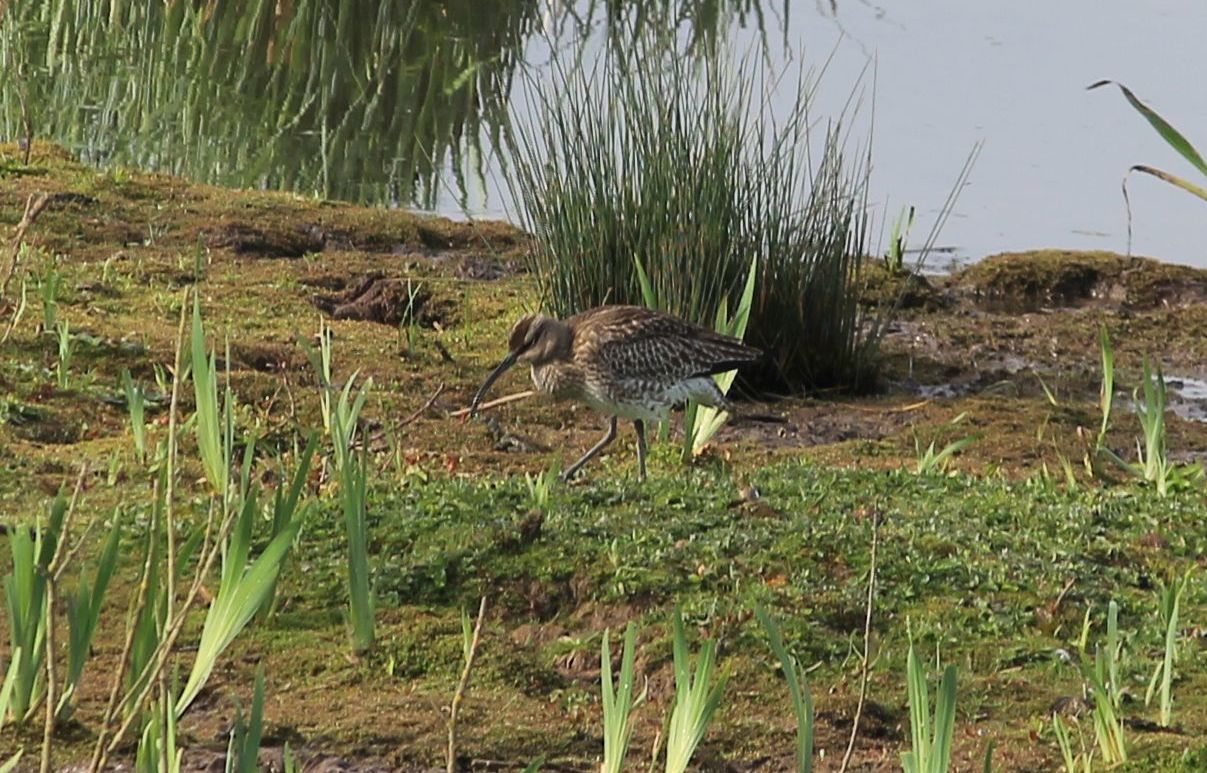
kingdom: Animalia
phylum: Chordata
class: Aves
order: Charadriiformes
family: Scolopacidae
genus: Numenius
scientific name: Numenius phaeopus
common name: Whimbrel
